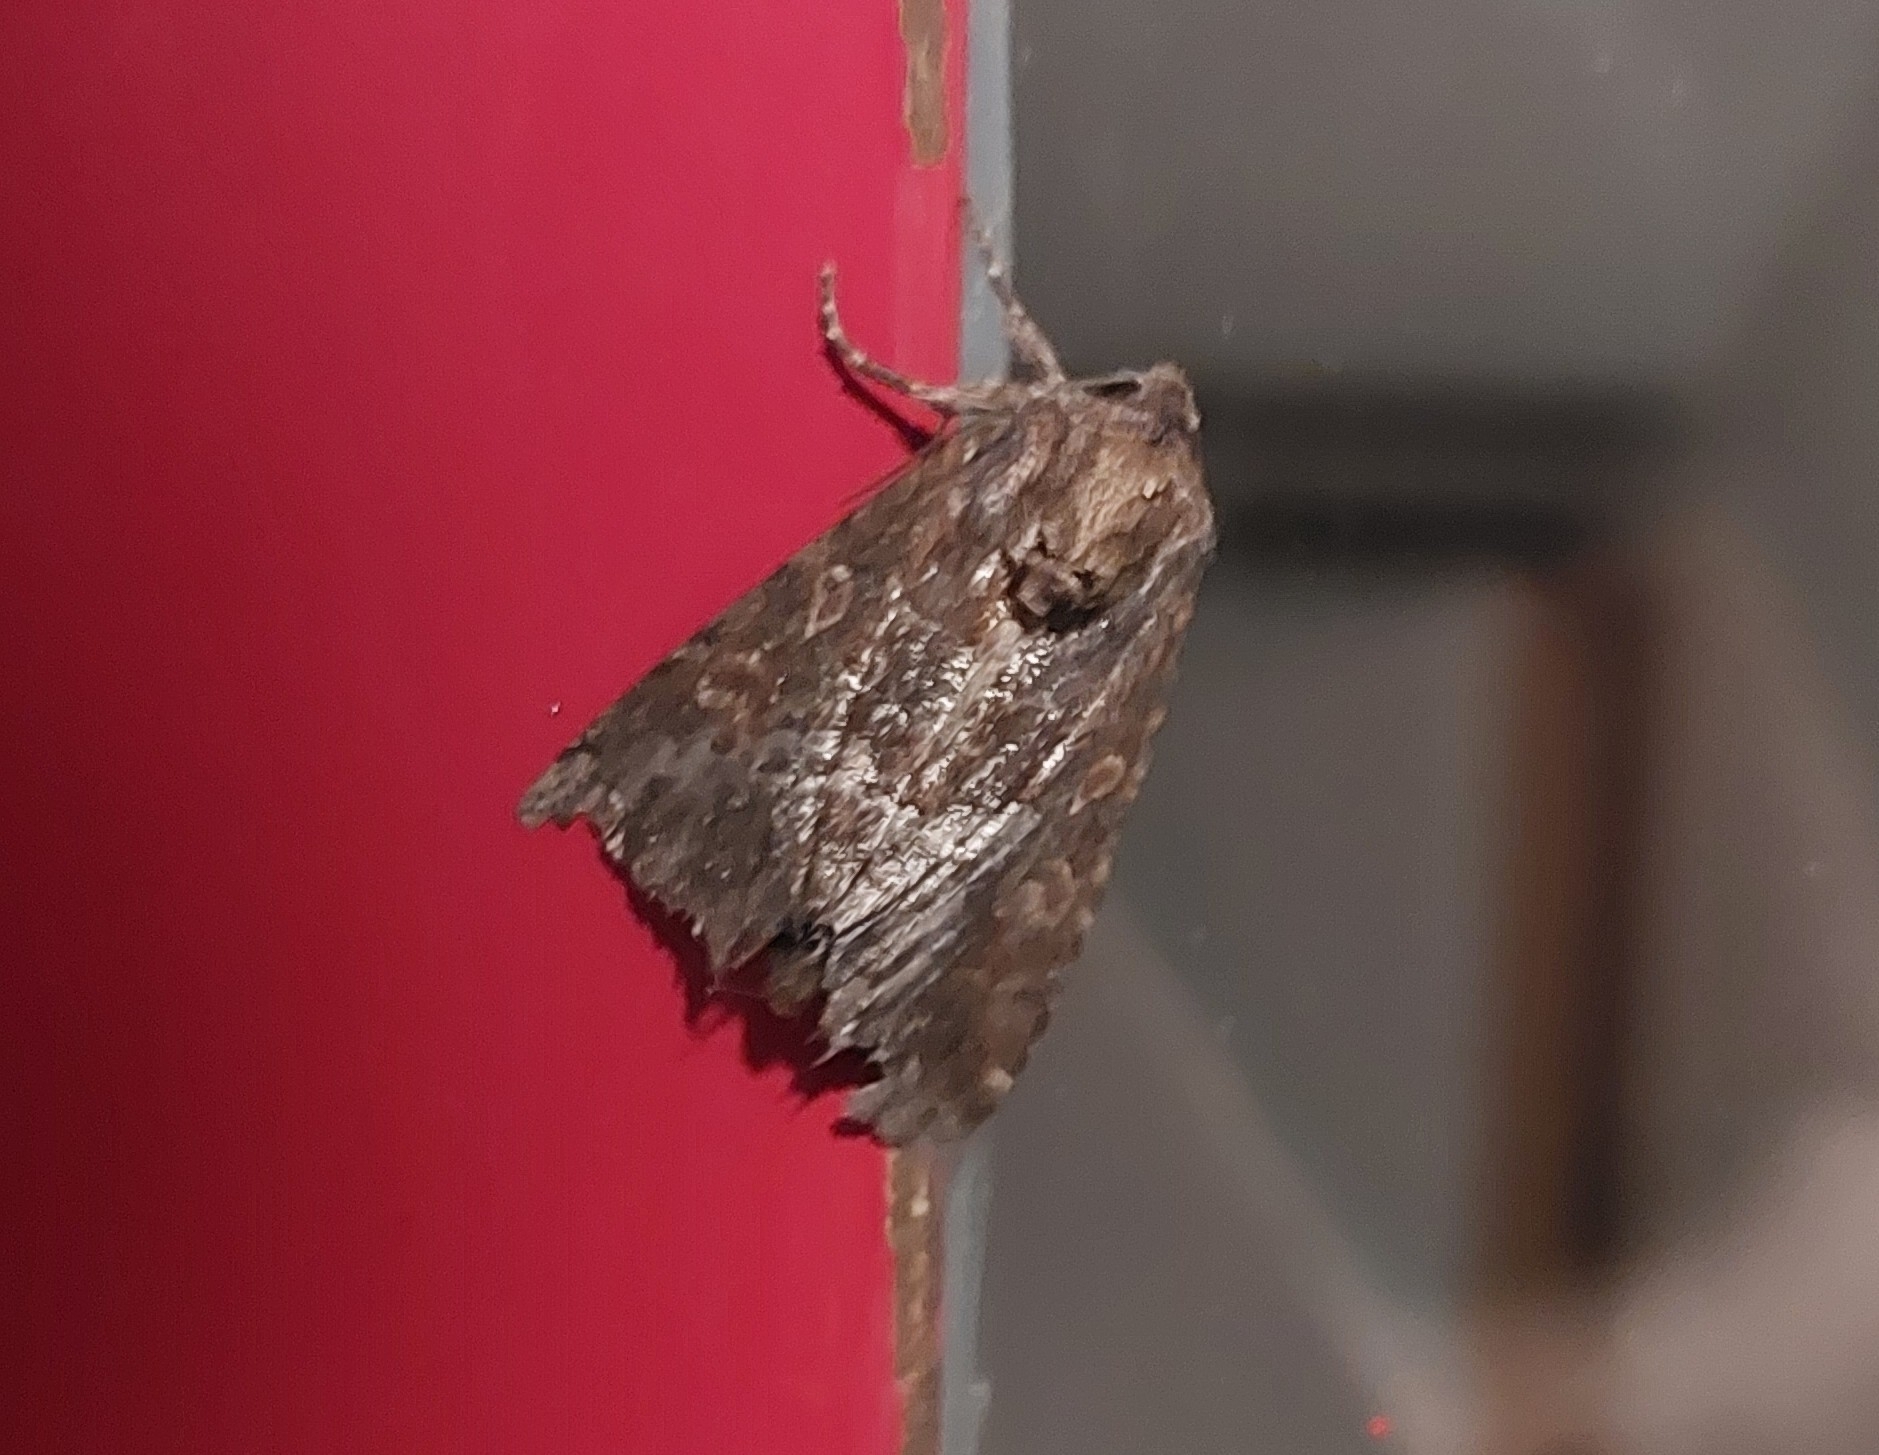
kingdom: Animalia
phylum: Arthropoda
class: Insecta
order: Lepidoptera
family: Noctuidae
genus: Thalpophila
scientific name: Thalpophila matura
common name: Straw underwing
